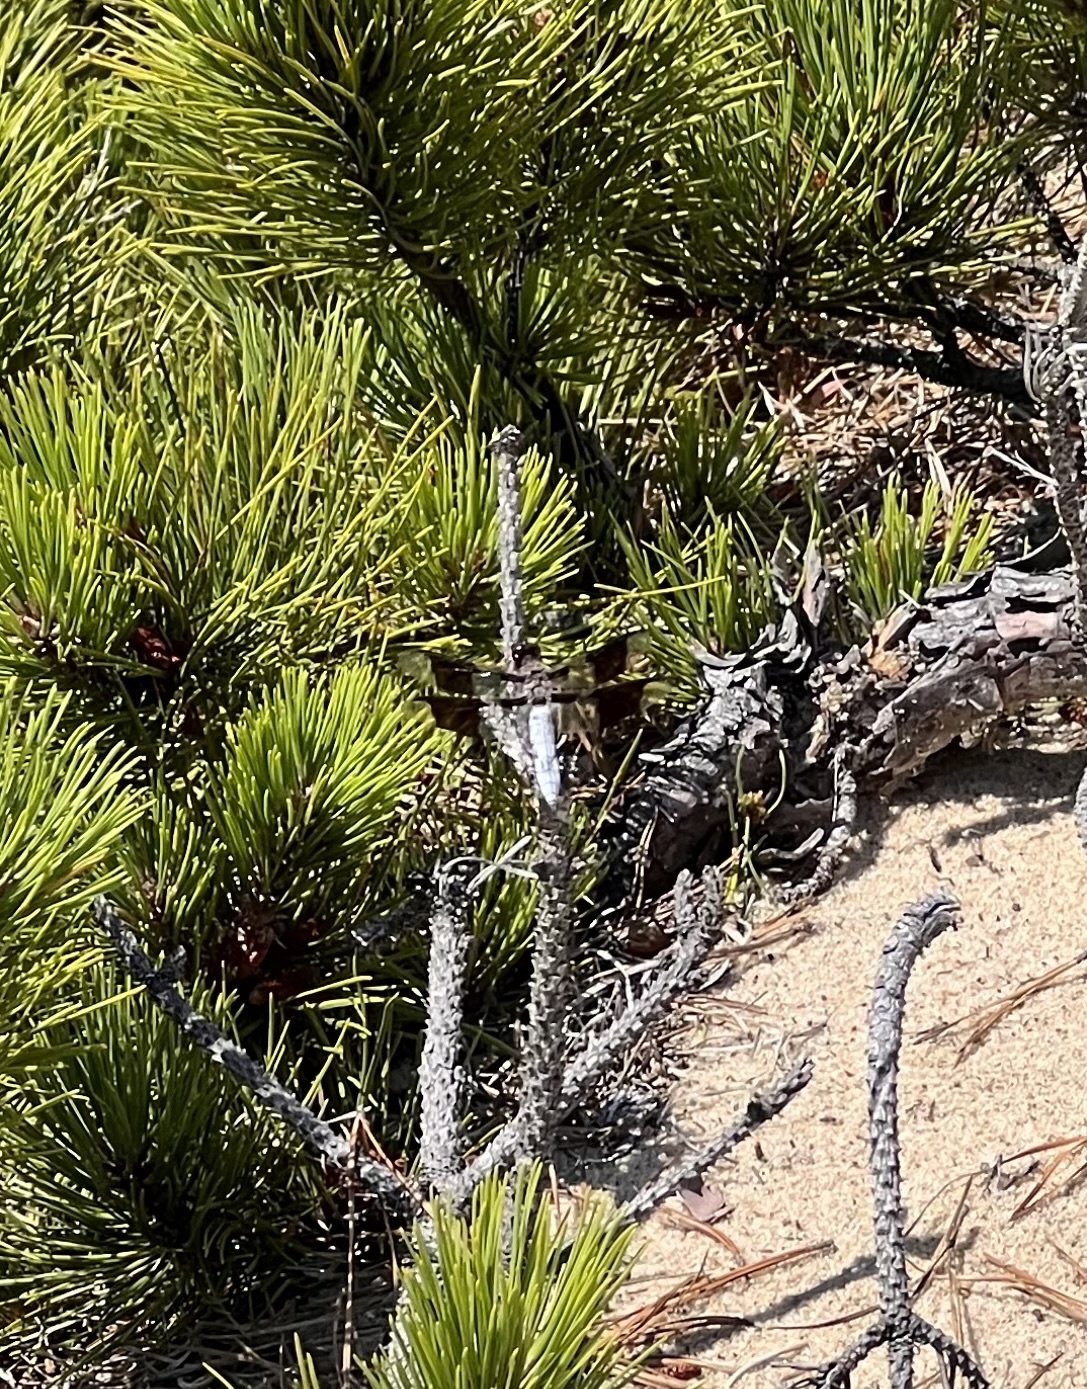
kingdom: Animalia
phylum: Arthropoda
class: Insecta
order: Odonata
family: Libellulidae
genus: Plathemis
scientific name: Plathemis lydia
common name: Common whitetail
